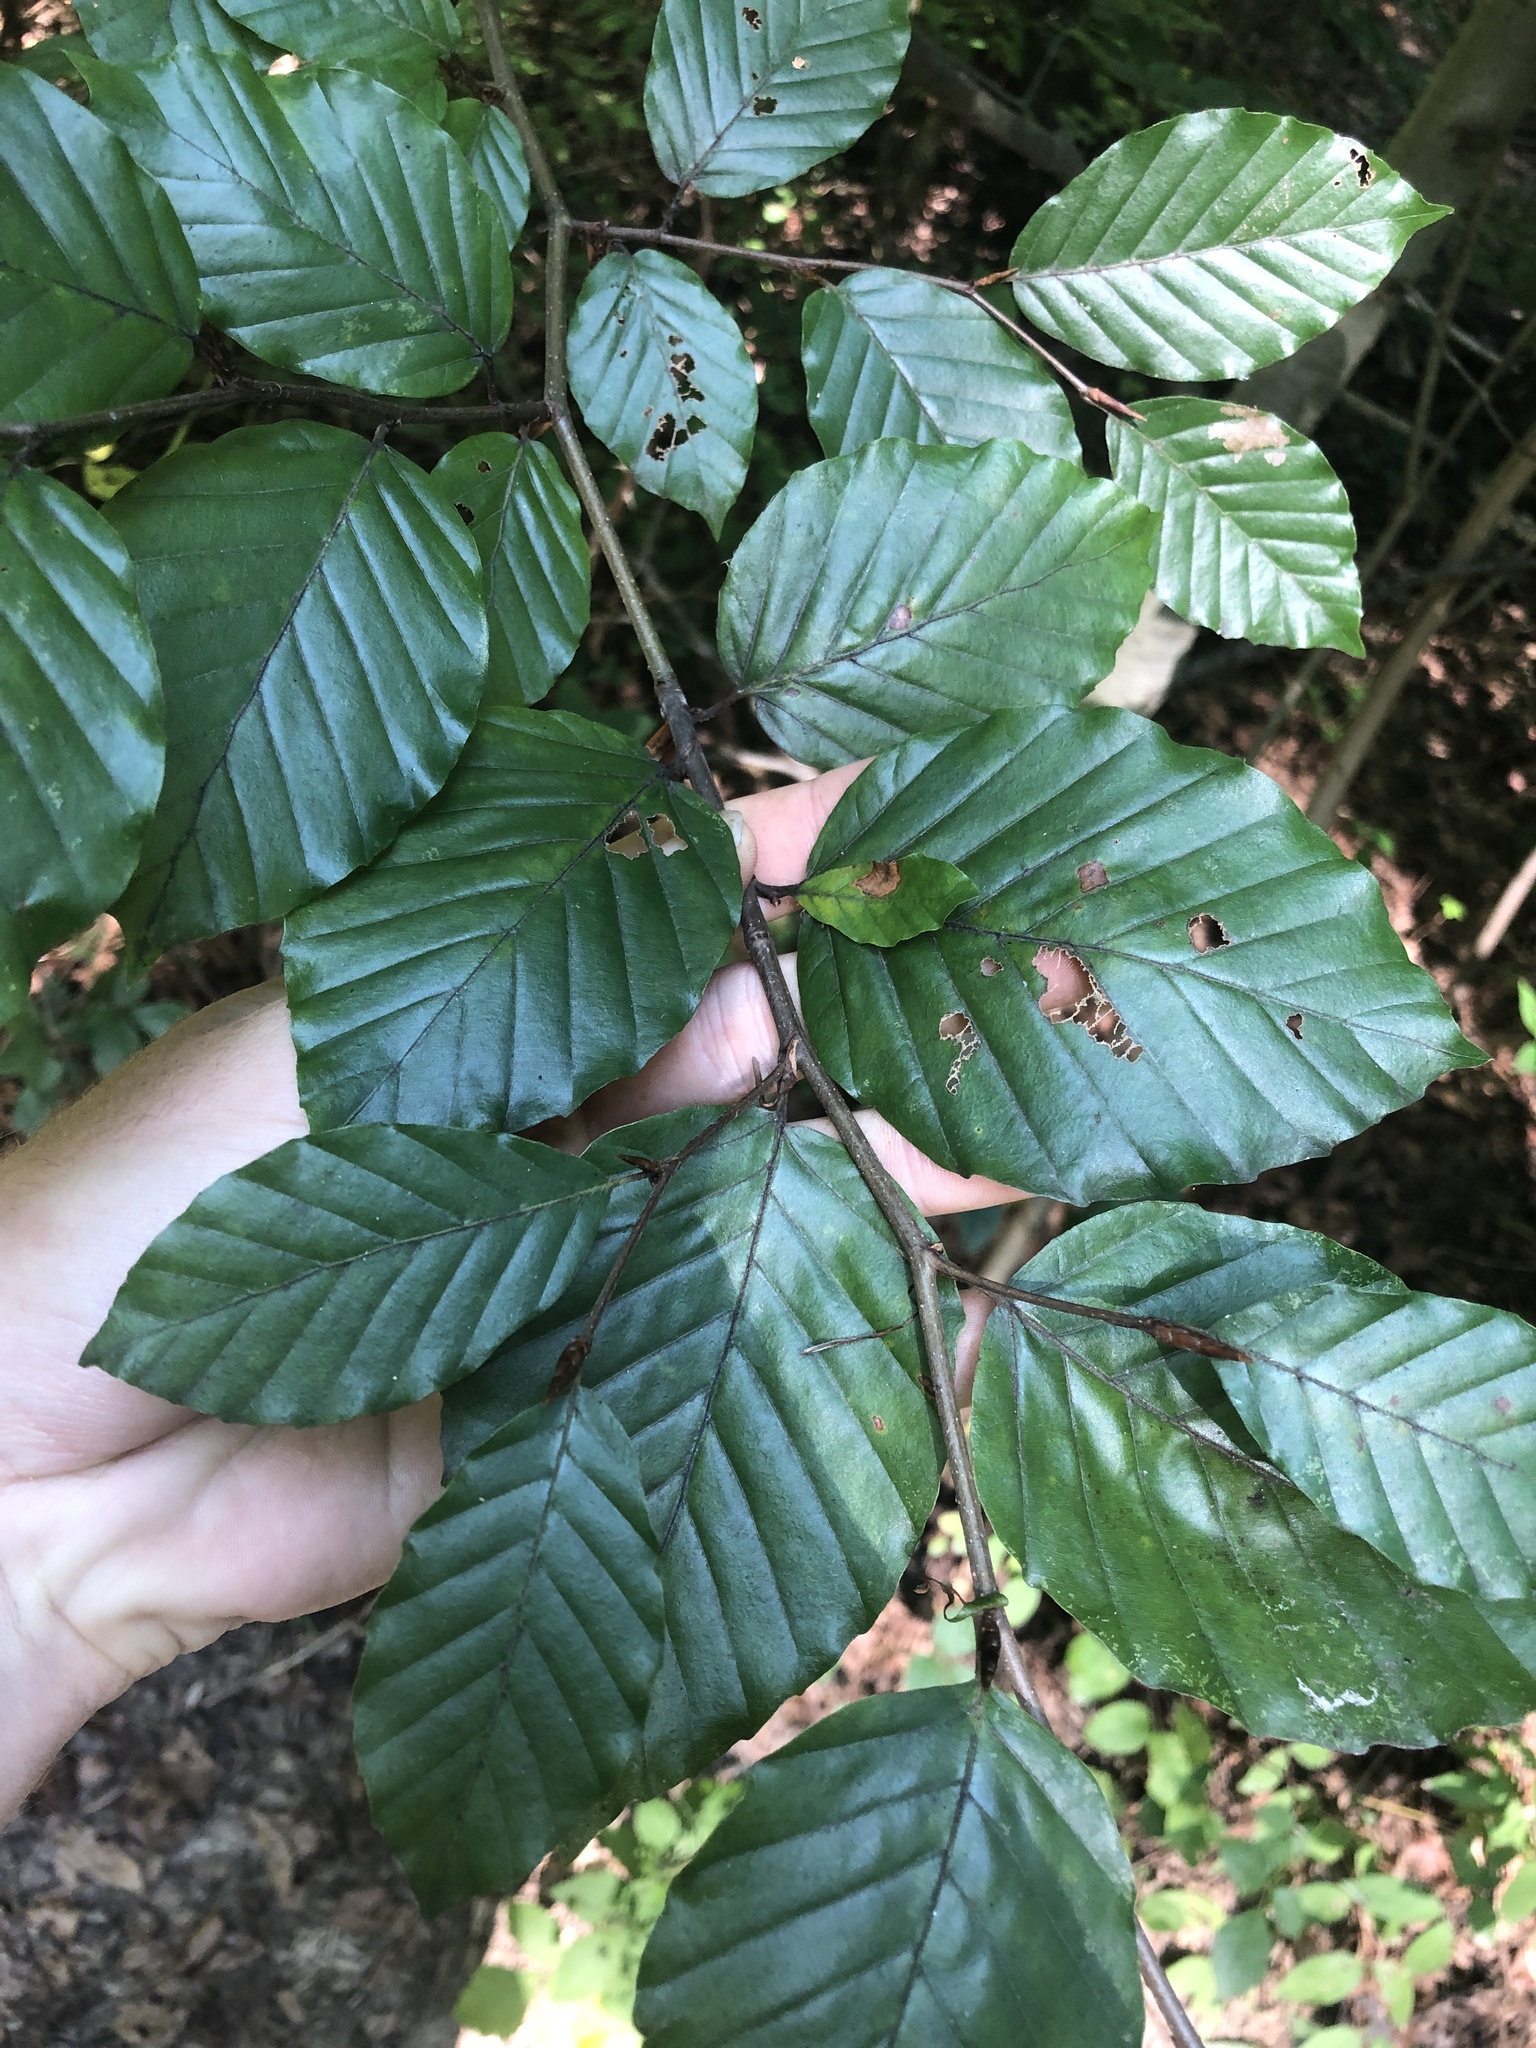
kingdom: Plantae
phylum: Tracheophyta
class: Magnoliopsida
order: Fagales
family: Fagaceae
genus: Fagus
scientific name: Fagus sylvatica
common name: Beech
